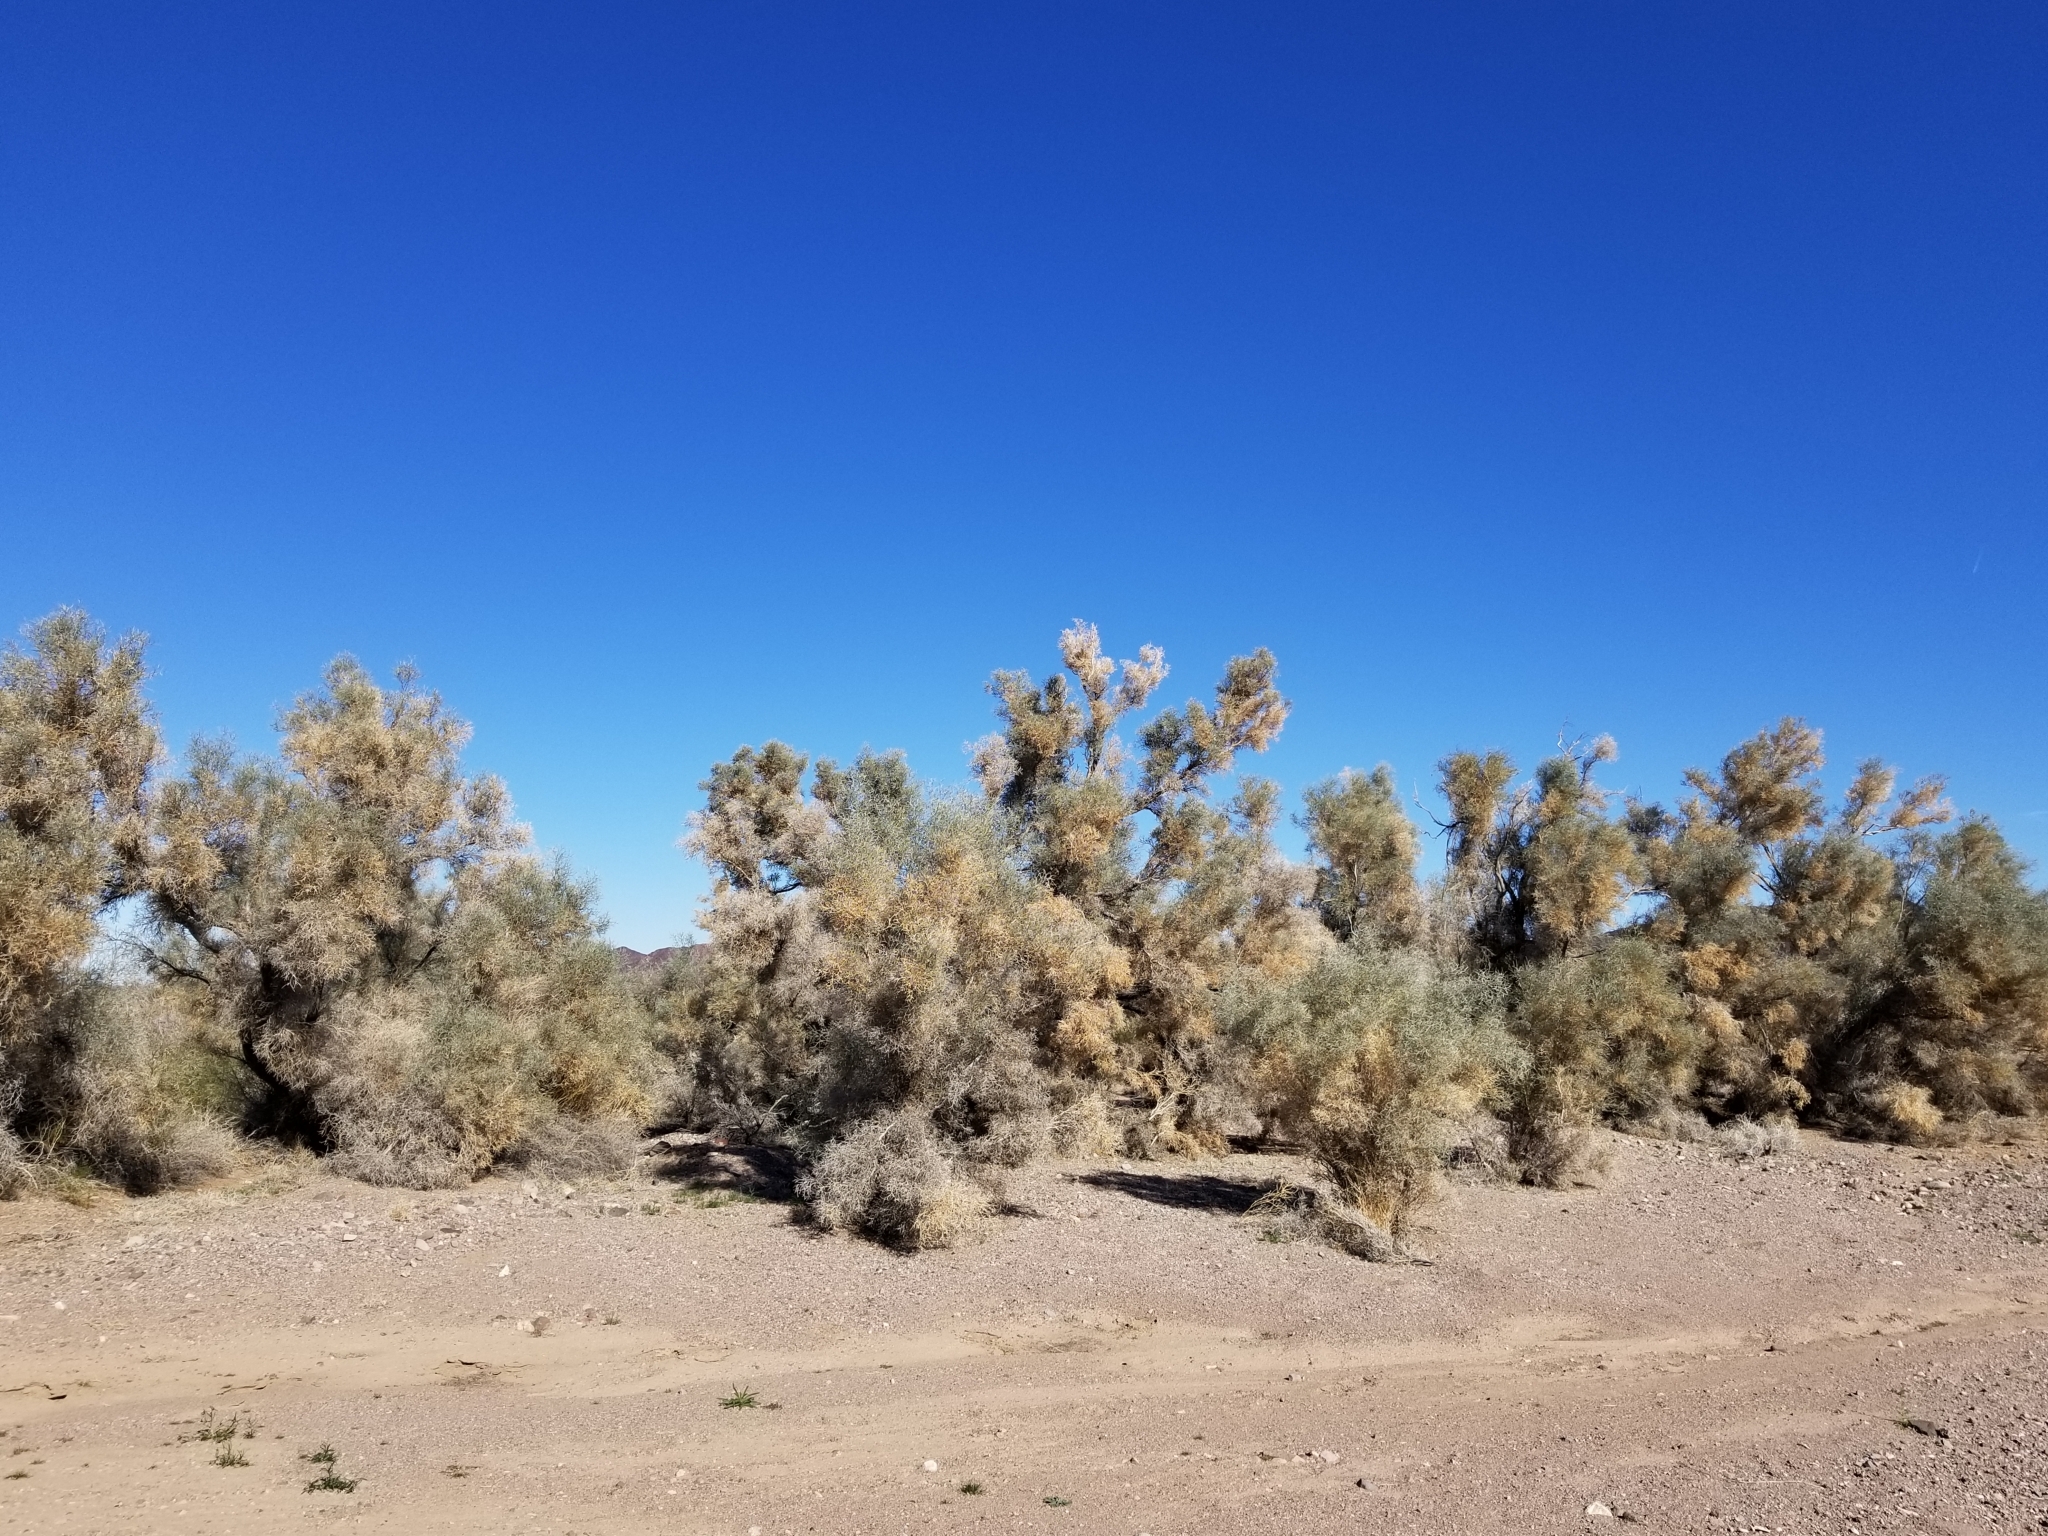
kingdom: Plantae
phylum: Tracheophyta
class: Magnoliopsida
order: Fabales
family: Fabaceae
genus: Psorothamnus
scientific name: Psorothamnus spinosus
